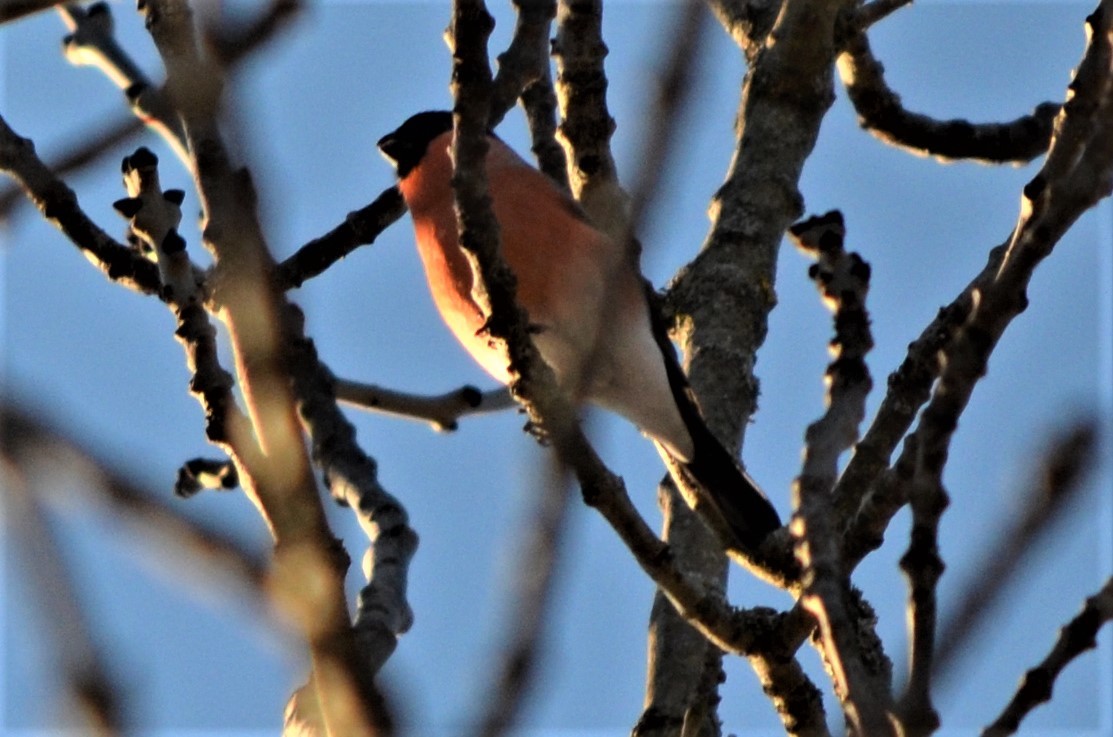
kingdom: Animalia
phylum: Chordata
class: Aves
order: Passeriformes
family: Fringillidae
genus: Pyrrhula
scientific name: Pyrrhula pyrrhula
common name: Eurasian bullfinch
